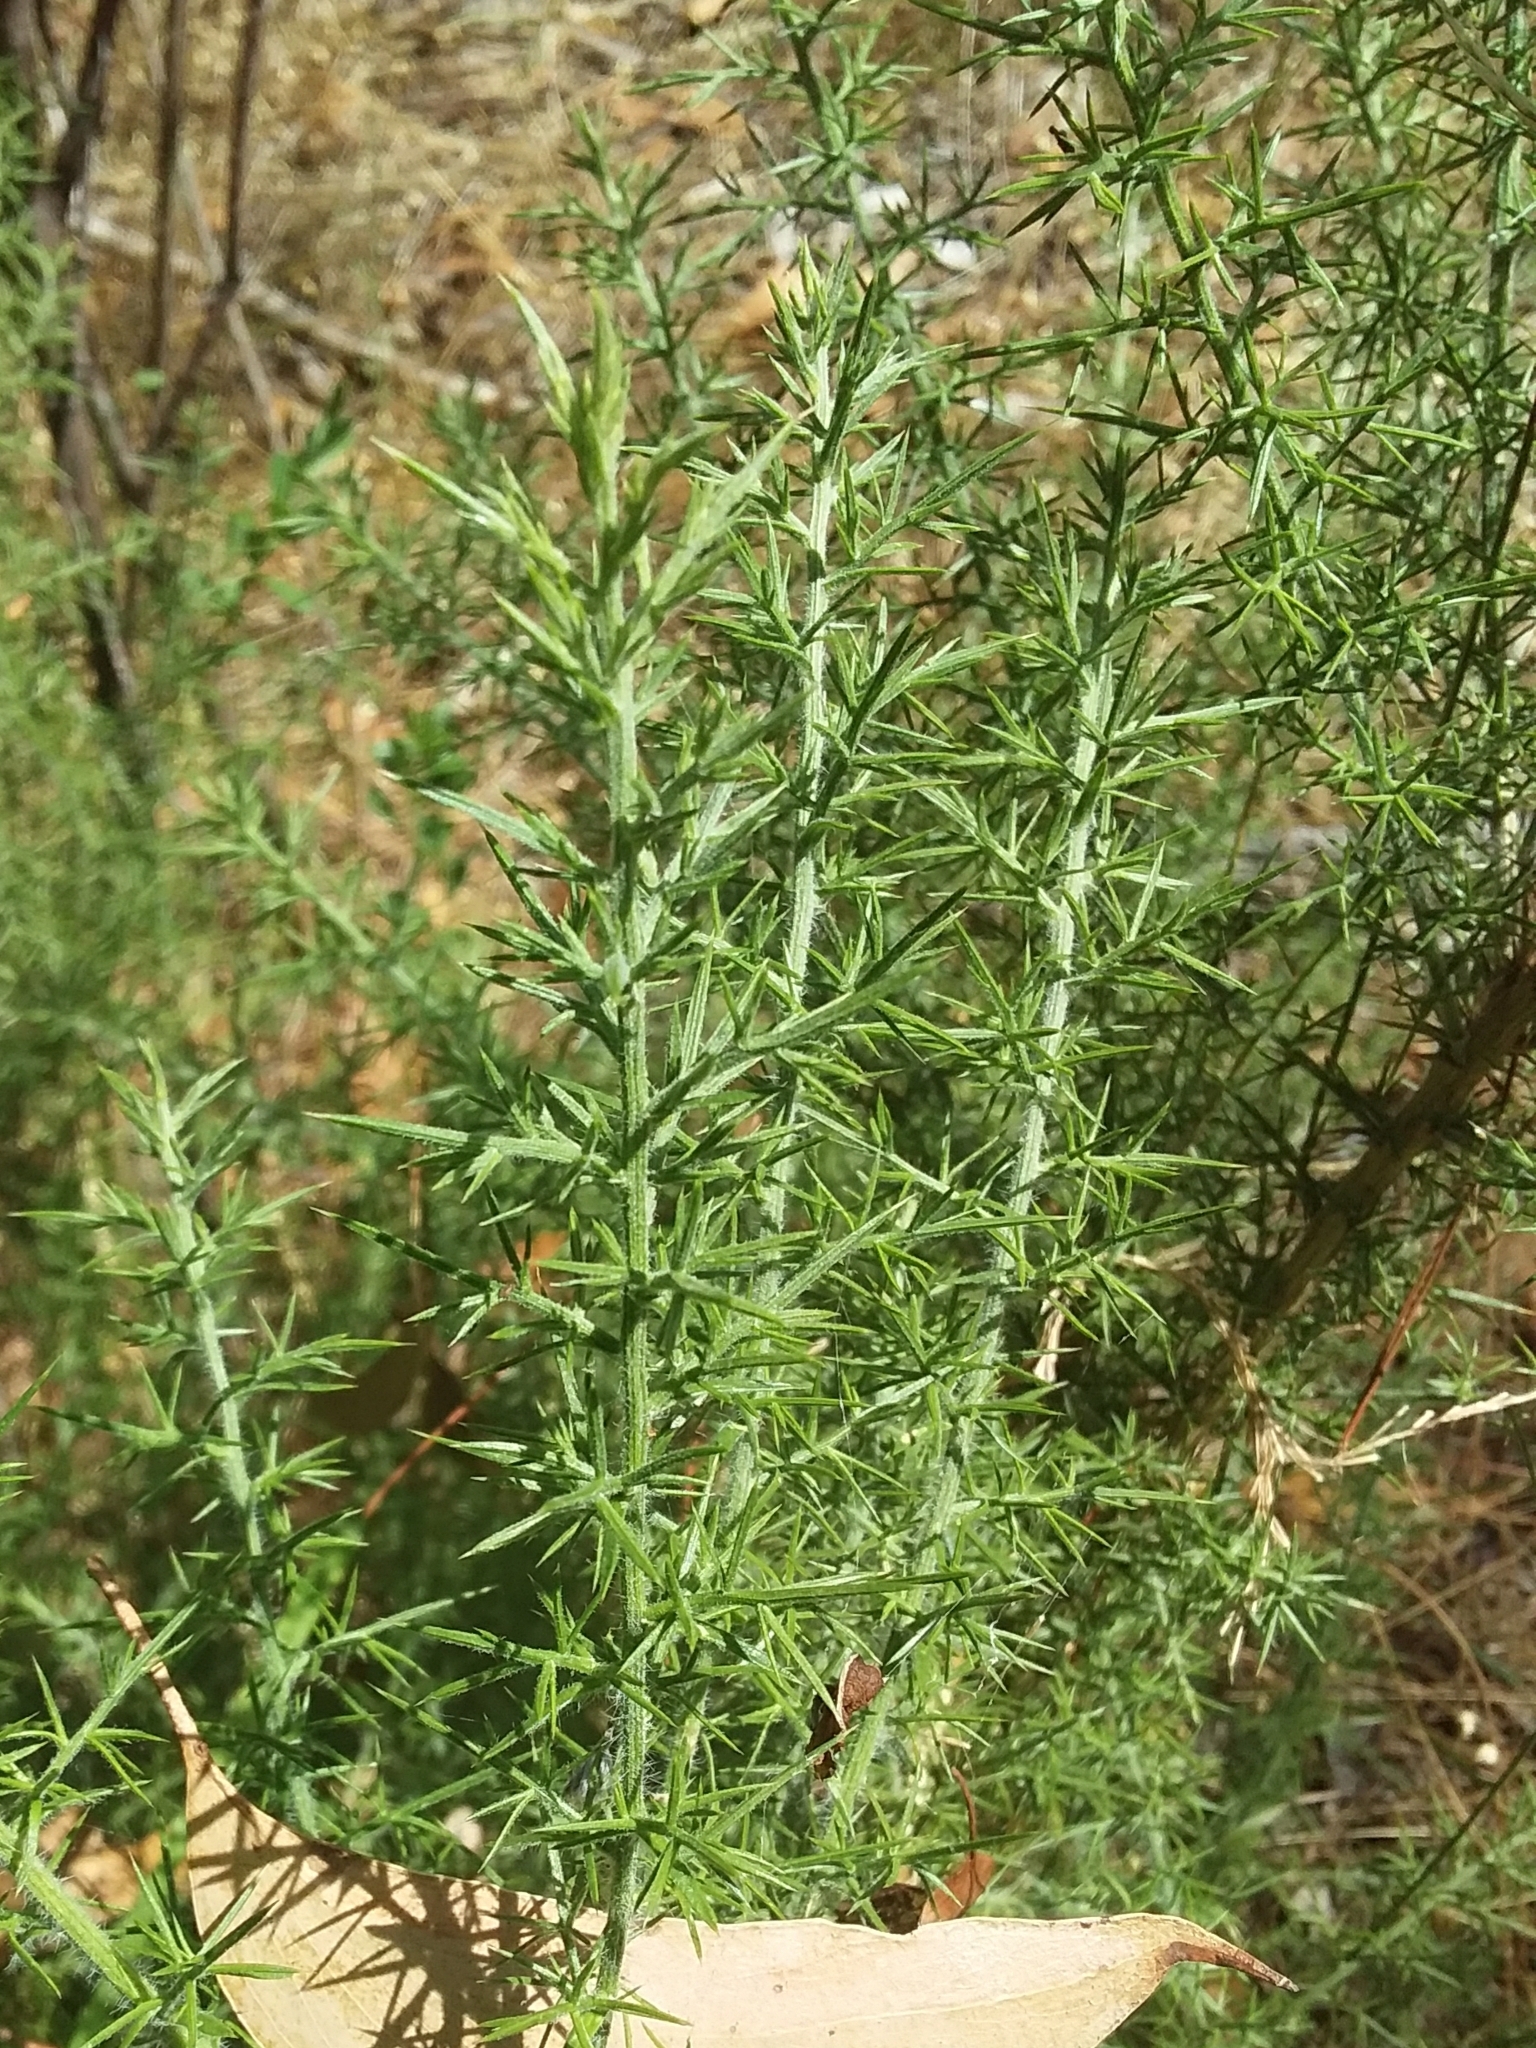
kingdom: Plantae
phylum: Tracheophyta
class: Magnoliopsida
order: Fabales
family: Fabaceae
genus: Ulex
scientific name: Ulex europaeus
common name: Common gorse
